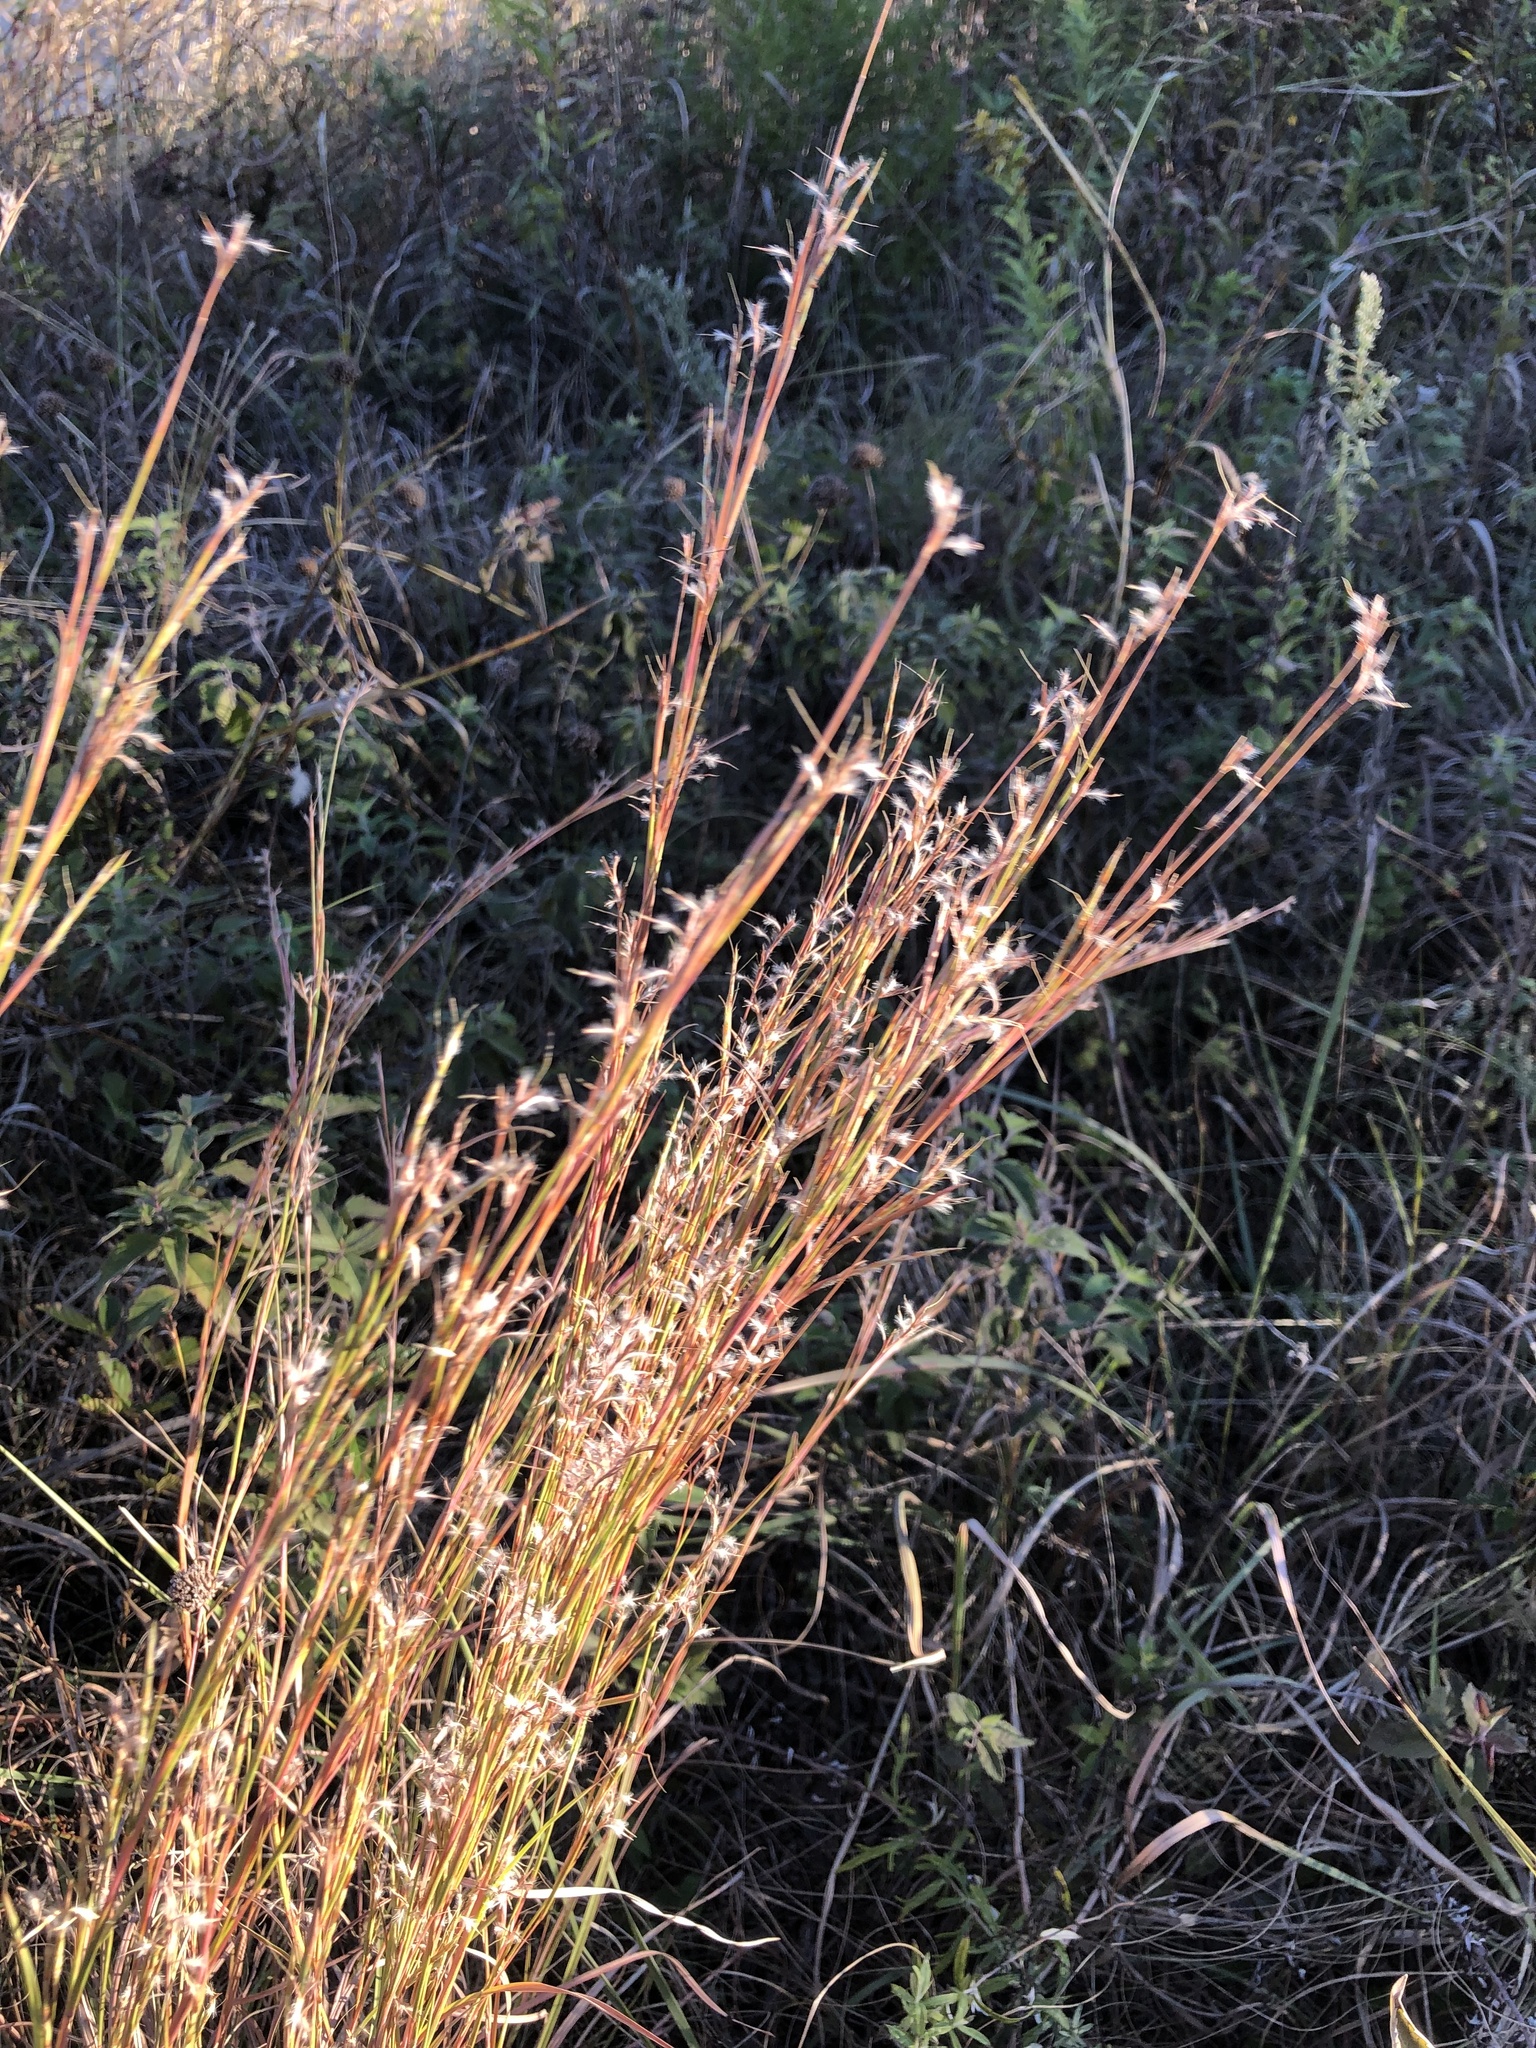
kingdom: Plantae
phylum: Tracheophyta
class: Liliopsida
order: Poales
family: Poaceae
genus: Schizachyrium
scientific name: Schizachyrium scoparium
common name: Little bluestem
